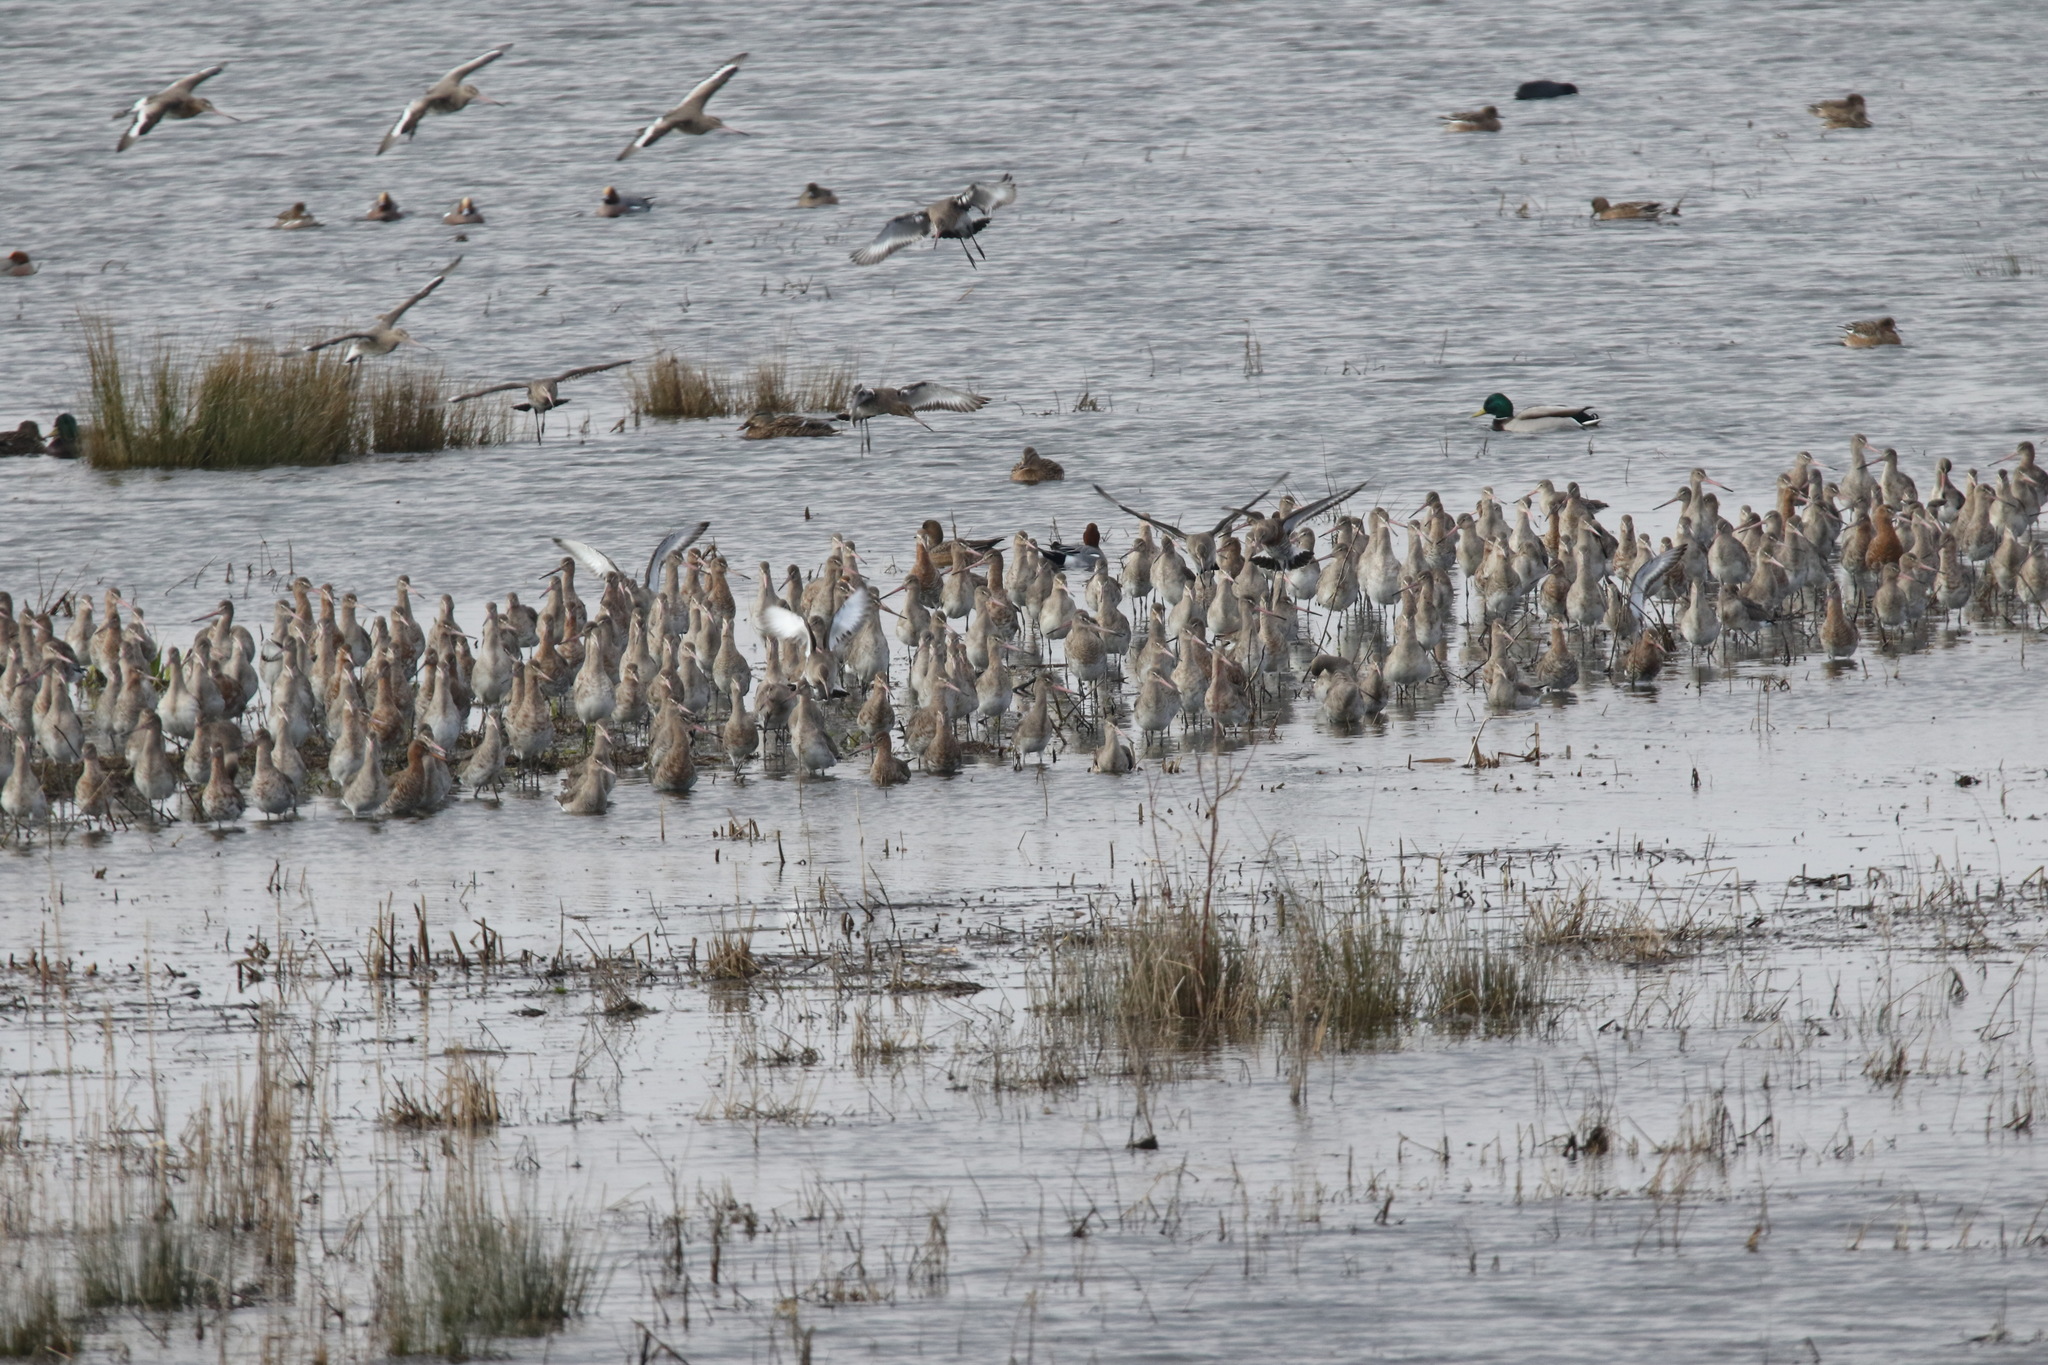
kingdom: Animalia
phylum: Chordata
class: Aves
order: Charadriiformes
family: Scolopacidae
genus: Limosa
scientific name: Limosa limosa
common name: Black-tailed godwit
